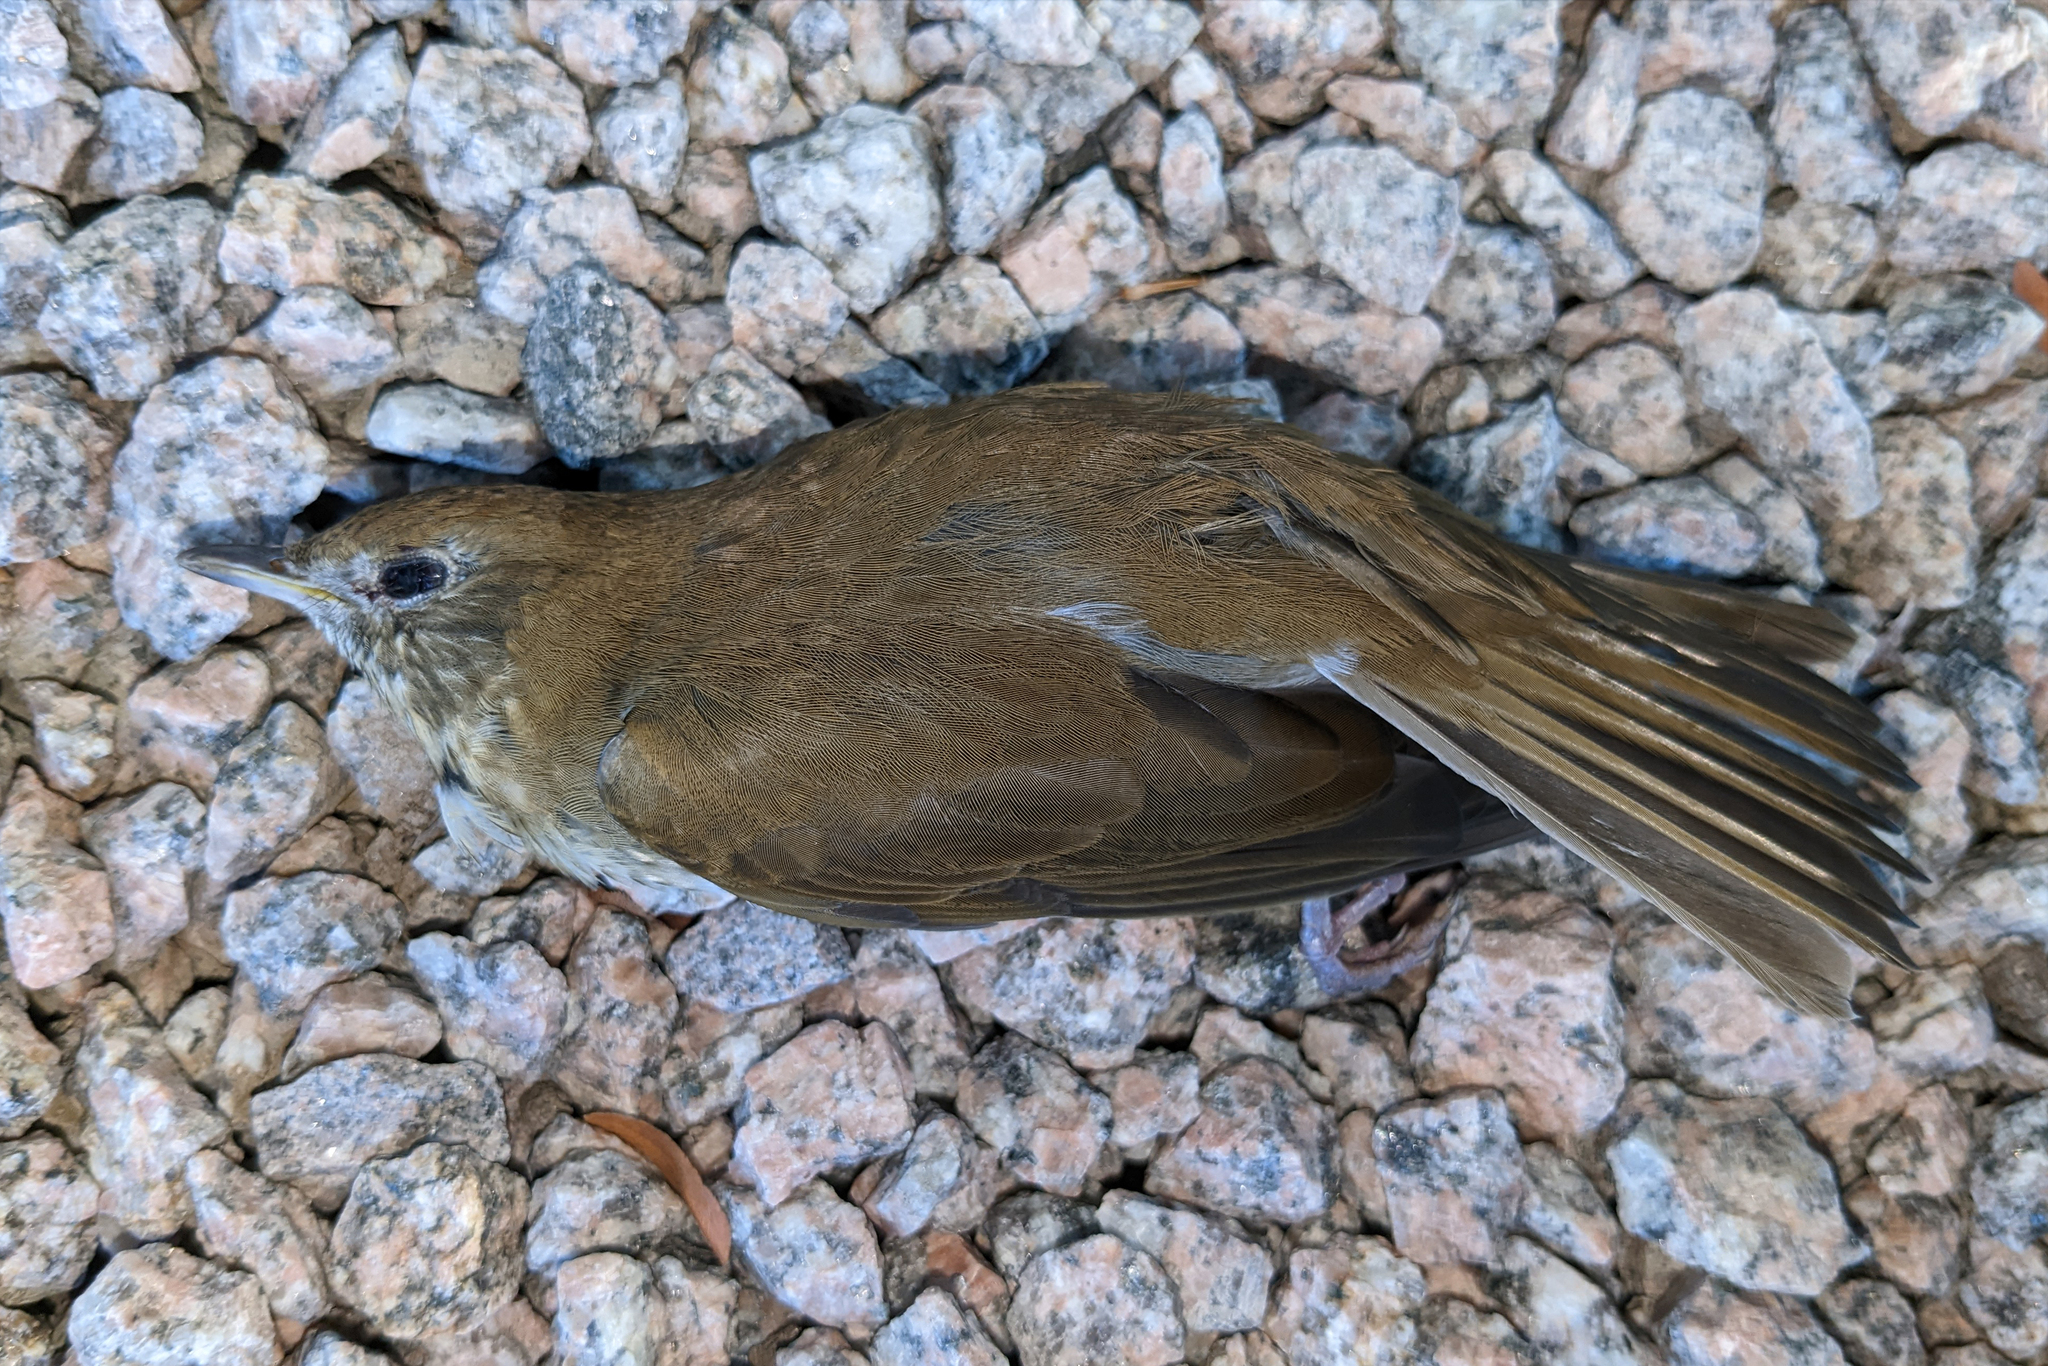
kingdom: Animalia
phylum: Chordata
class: Aves
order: Passeriformes
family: Turdidae
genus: Catharus
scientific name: Catharus fuscescens
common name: Veery
